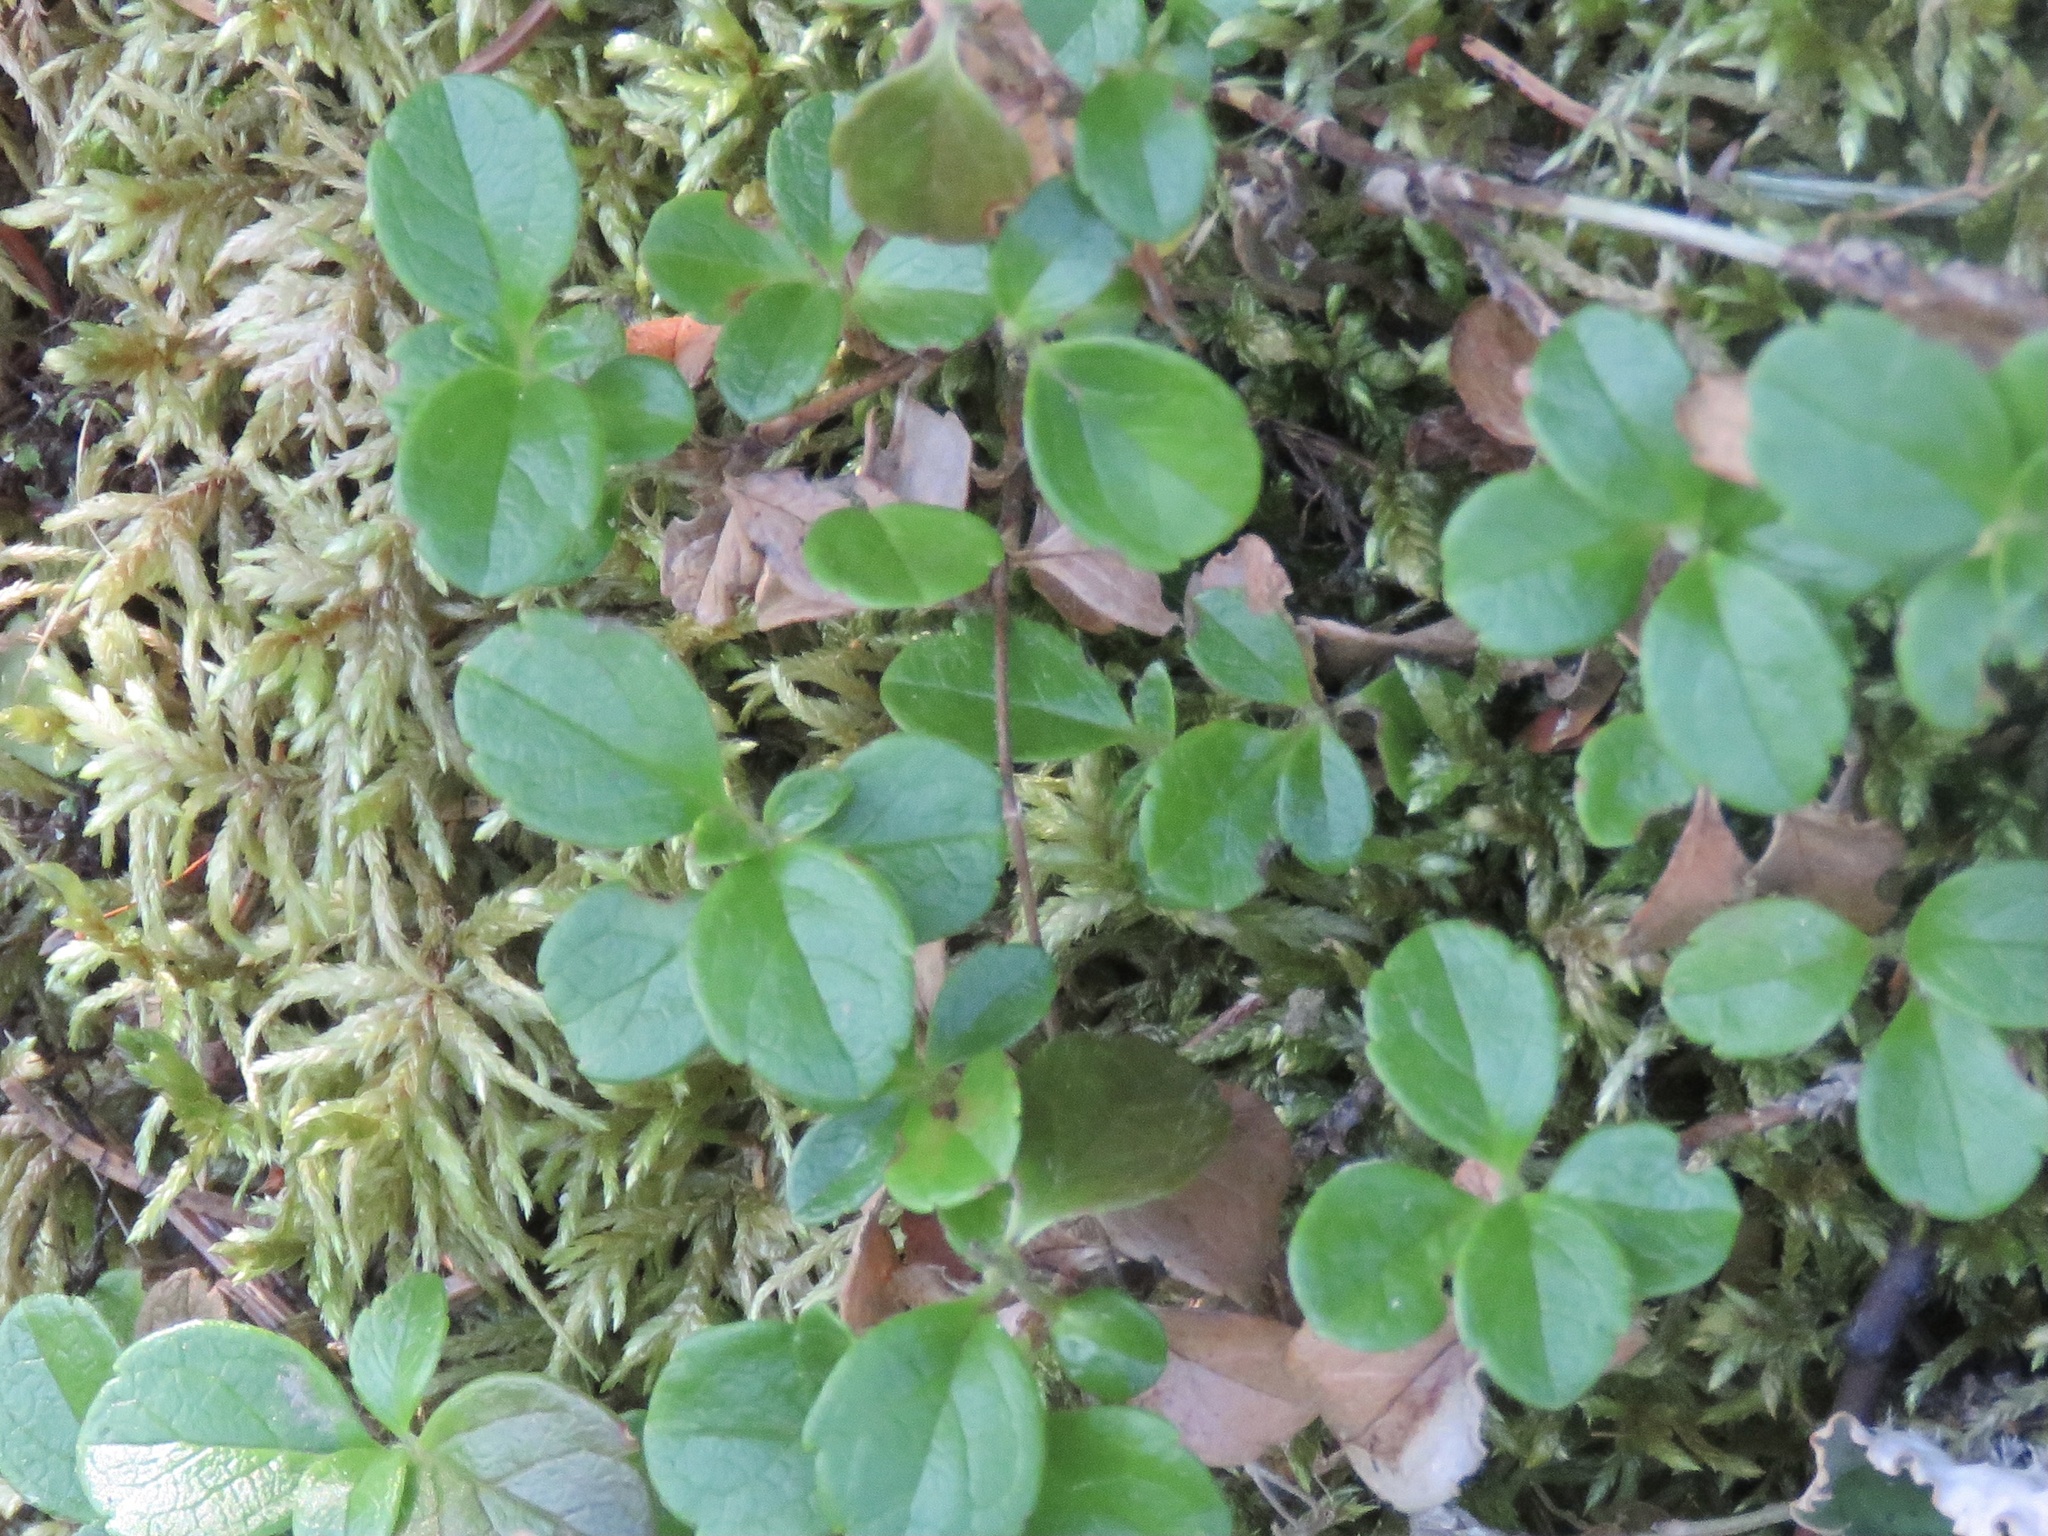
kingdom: Plantae
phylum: Tracheophyta
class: Magnoliopsida
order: Dipsacales
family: Caprifoliaceae
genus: Linnaea
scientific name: Linnaea borealis
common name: Twinflower
